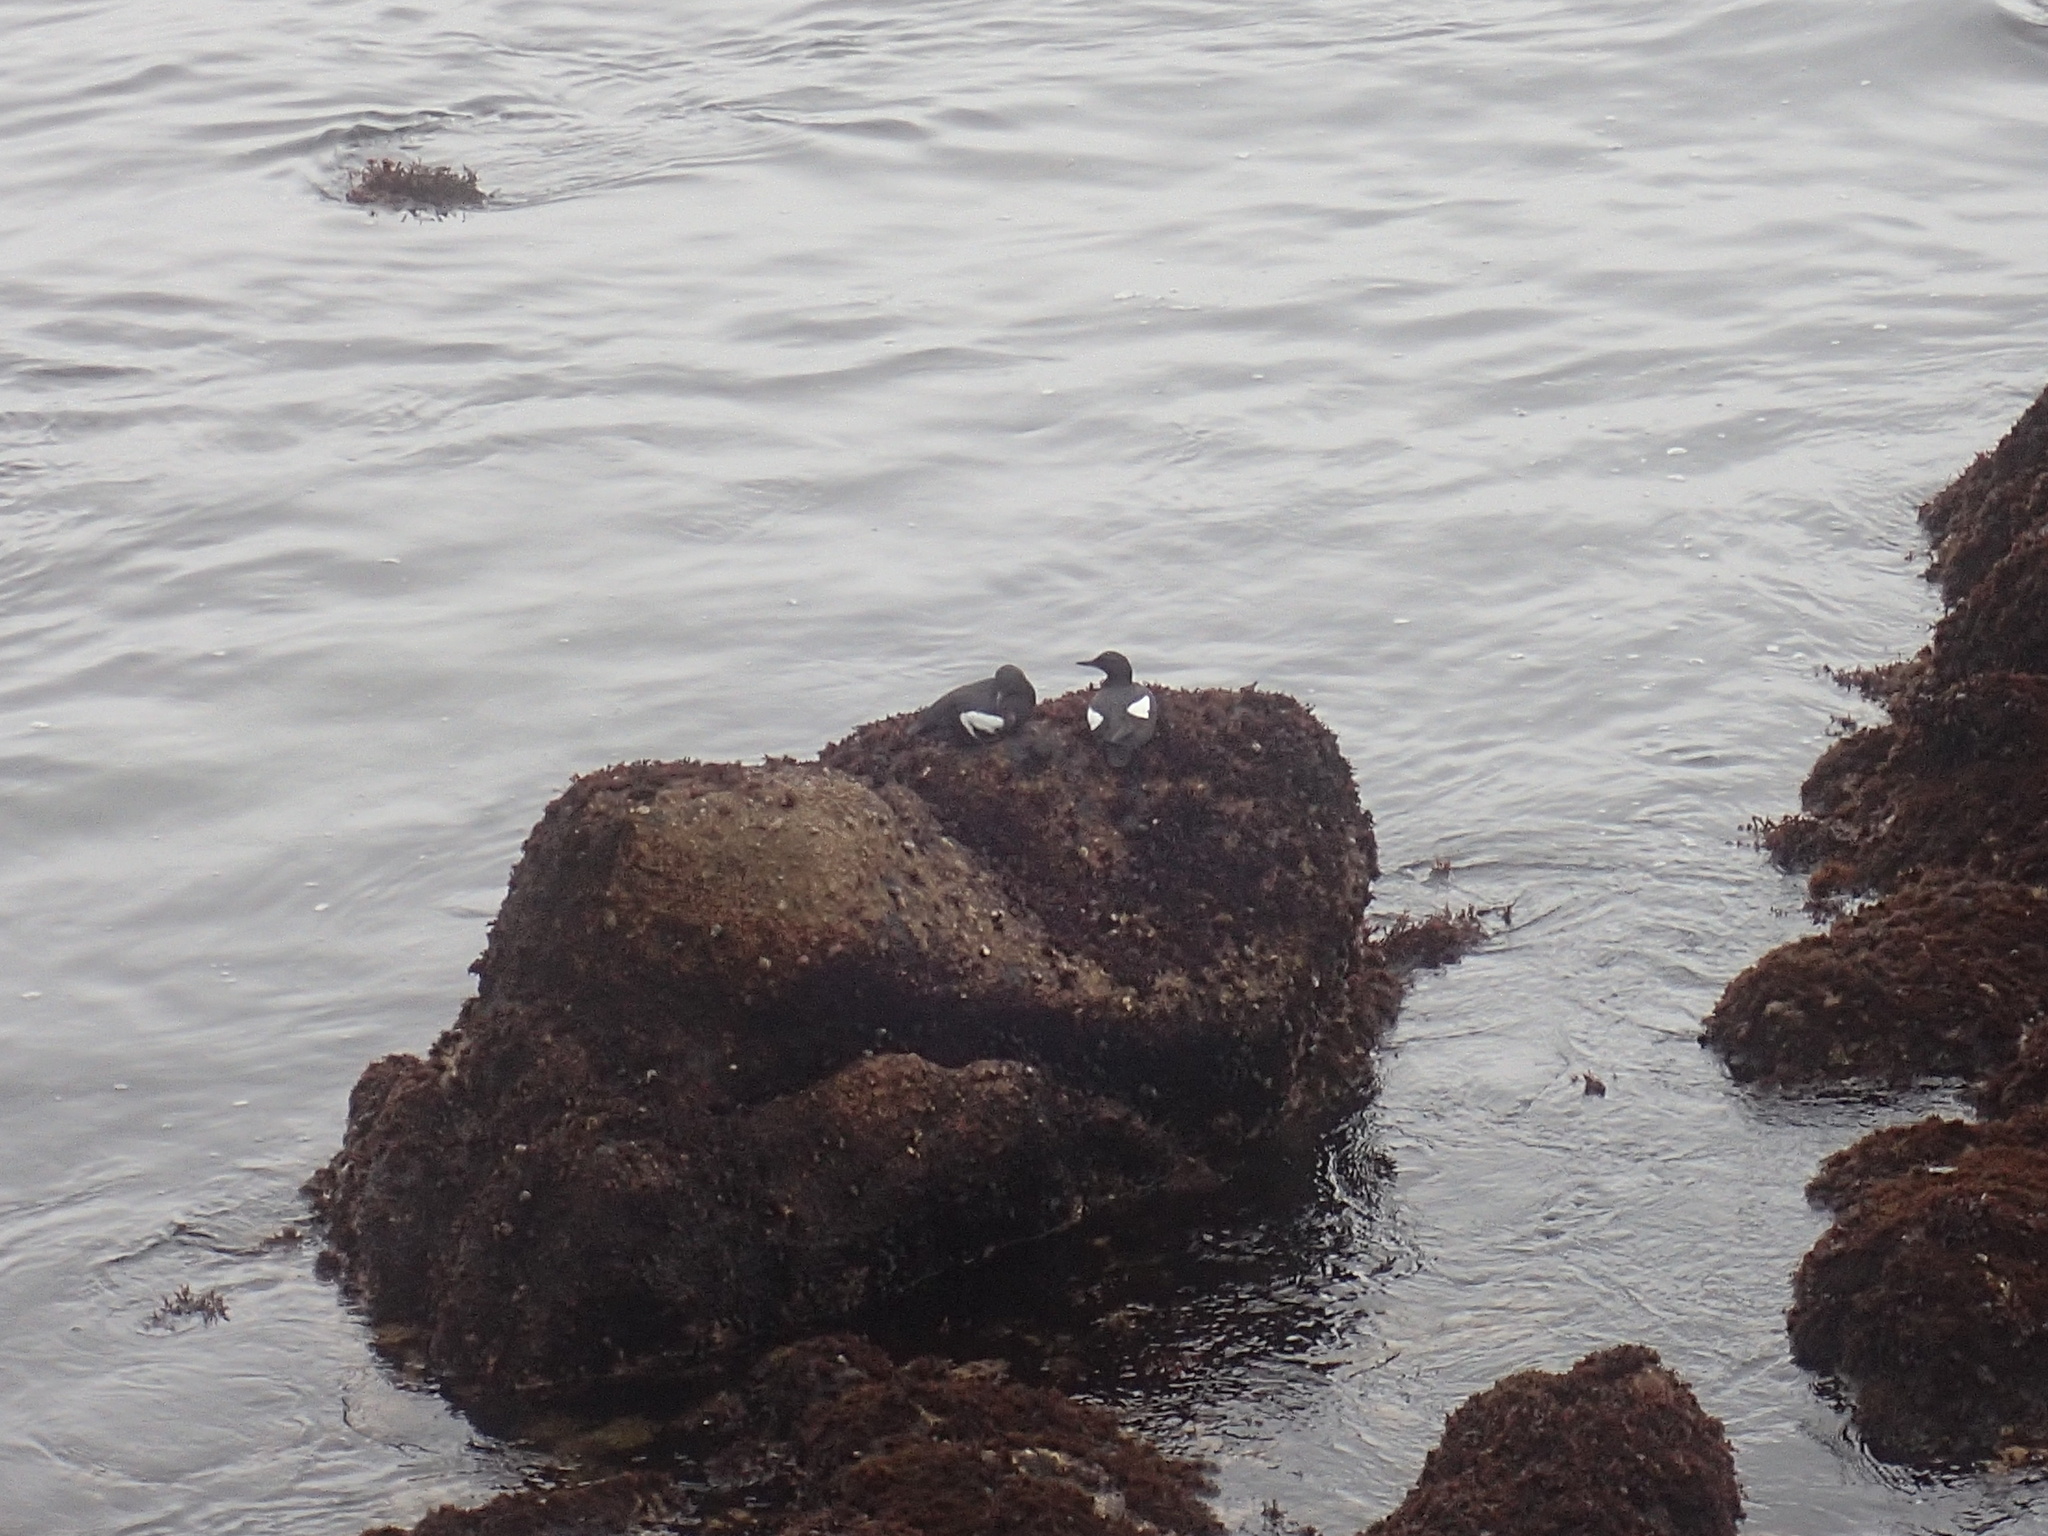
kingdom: Animalia
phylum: Chordata
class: Aves
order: Charadriiformes
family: Alcidae
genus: Cepphus
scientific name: Cepphus columba
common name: Pigeon guillemot
